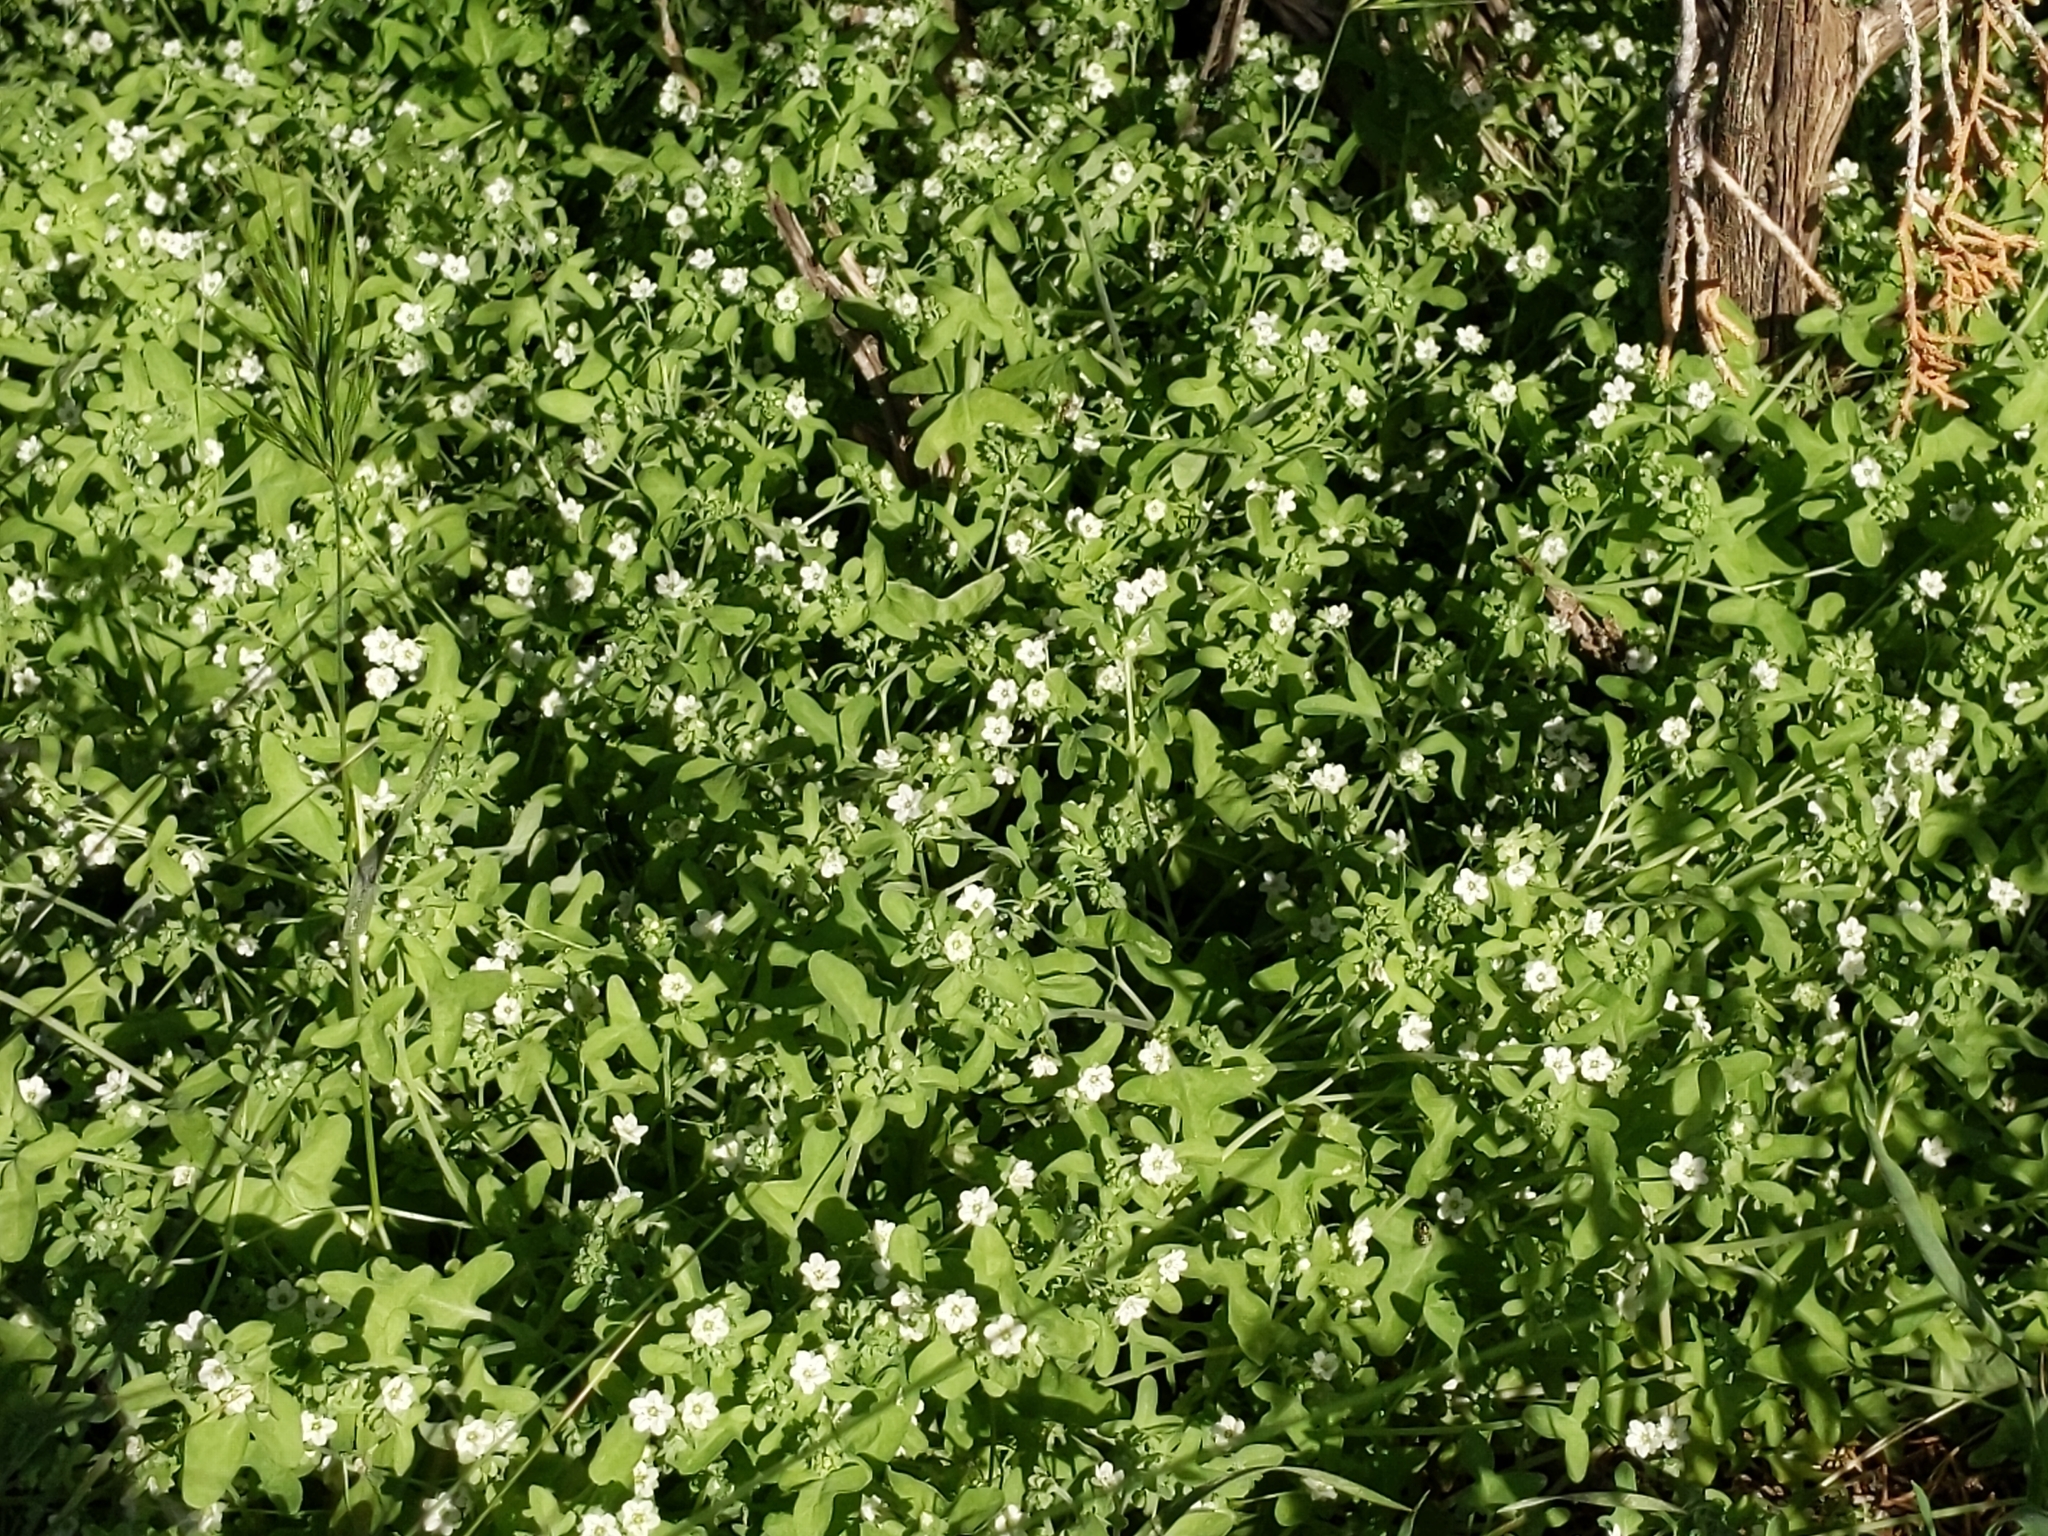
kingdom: Plantae
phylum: Tracheophyta
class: Magnoliopsida
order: Boraginales
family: Hydrophyllaceae
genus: Pholistoma
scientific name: Pholistoma membranaceum
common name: White fiesta-flower
